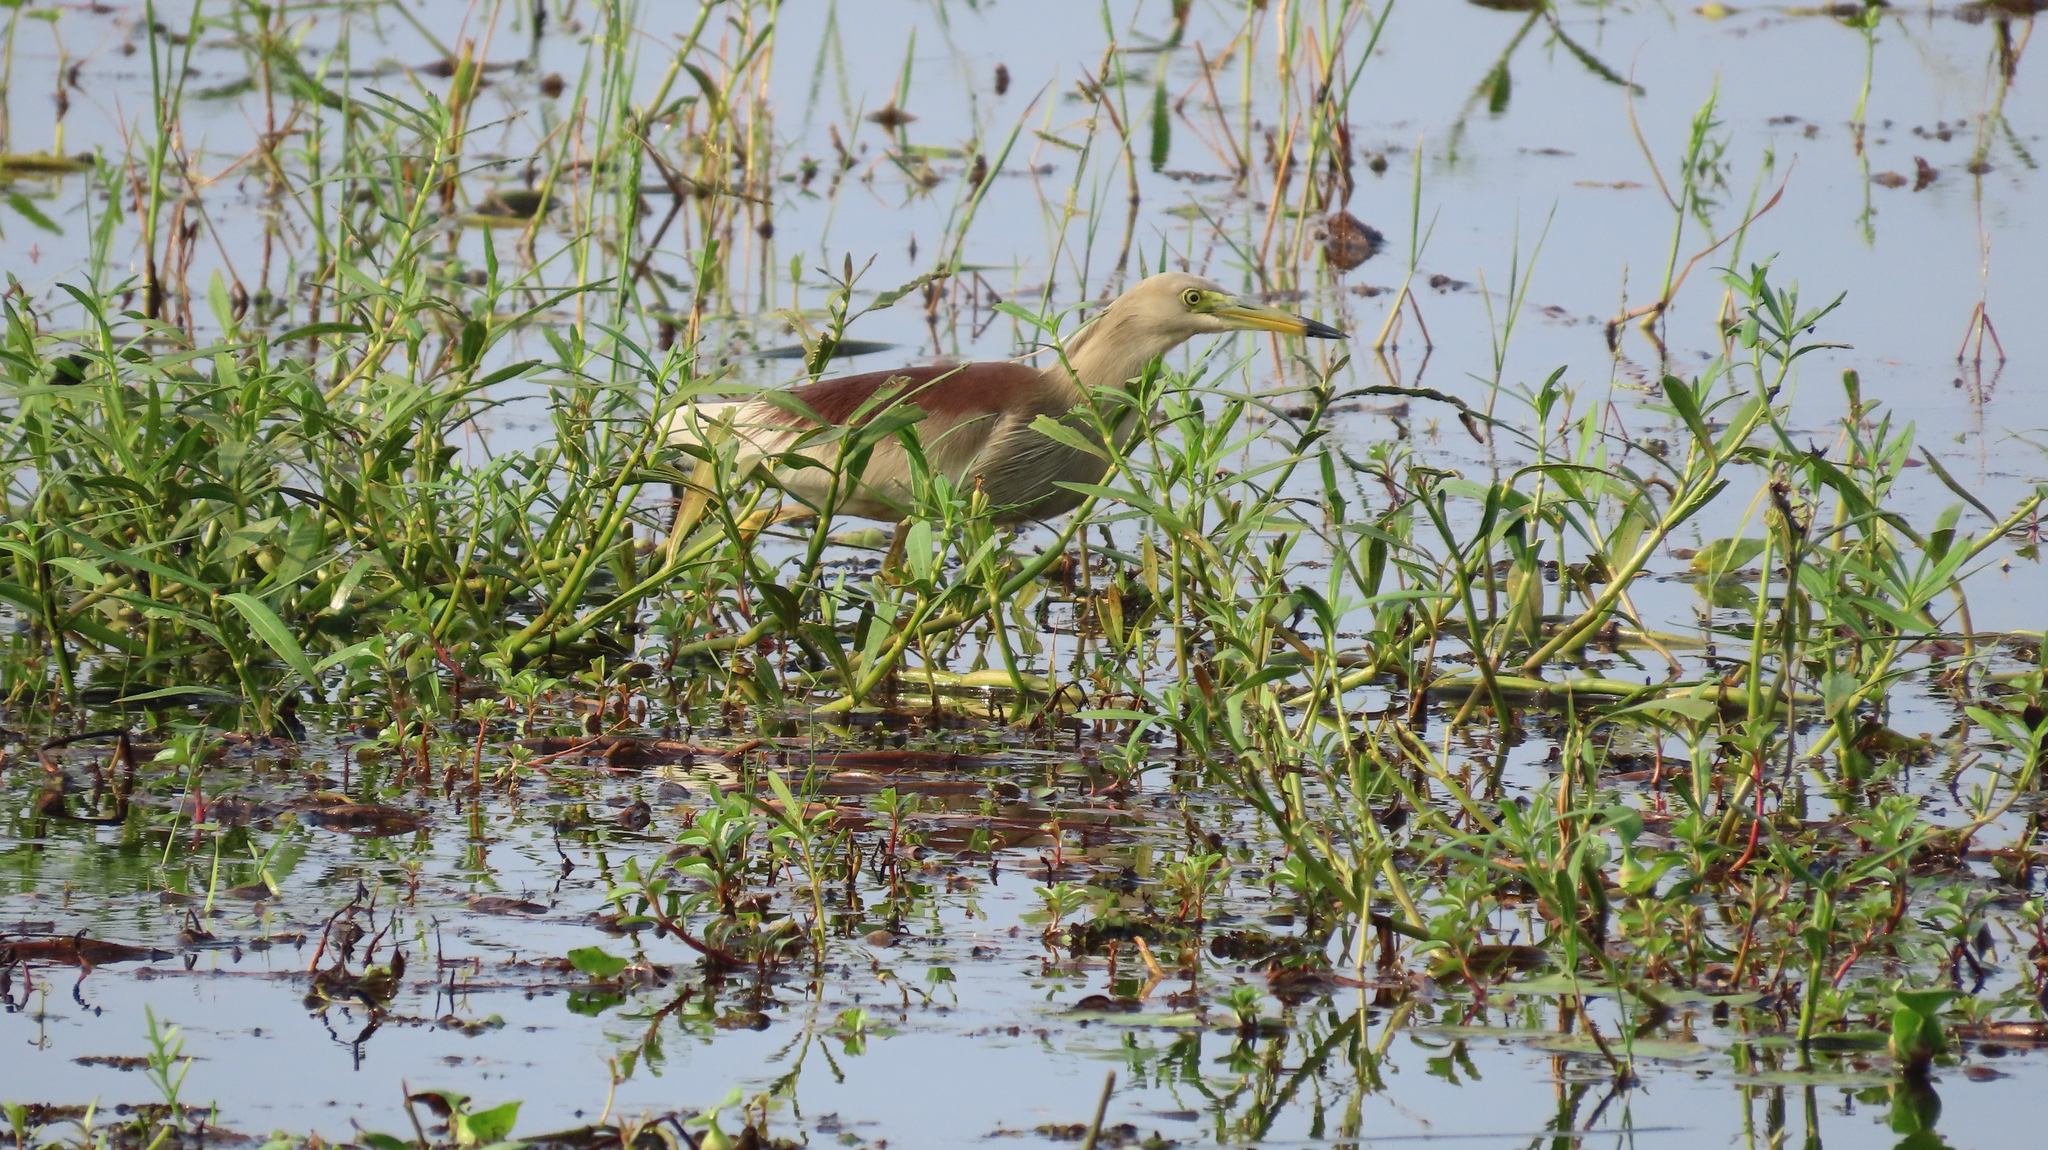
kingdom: Animalia
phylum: Chordata
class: Aves
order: Pelecaniformes
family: Ardeidae
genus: Ardeola
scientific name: Ardeola grayii
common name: Indian pond heron
